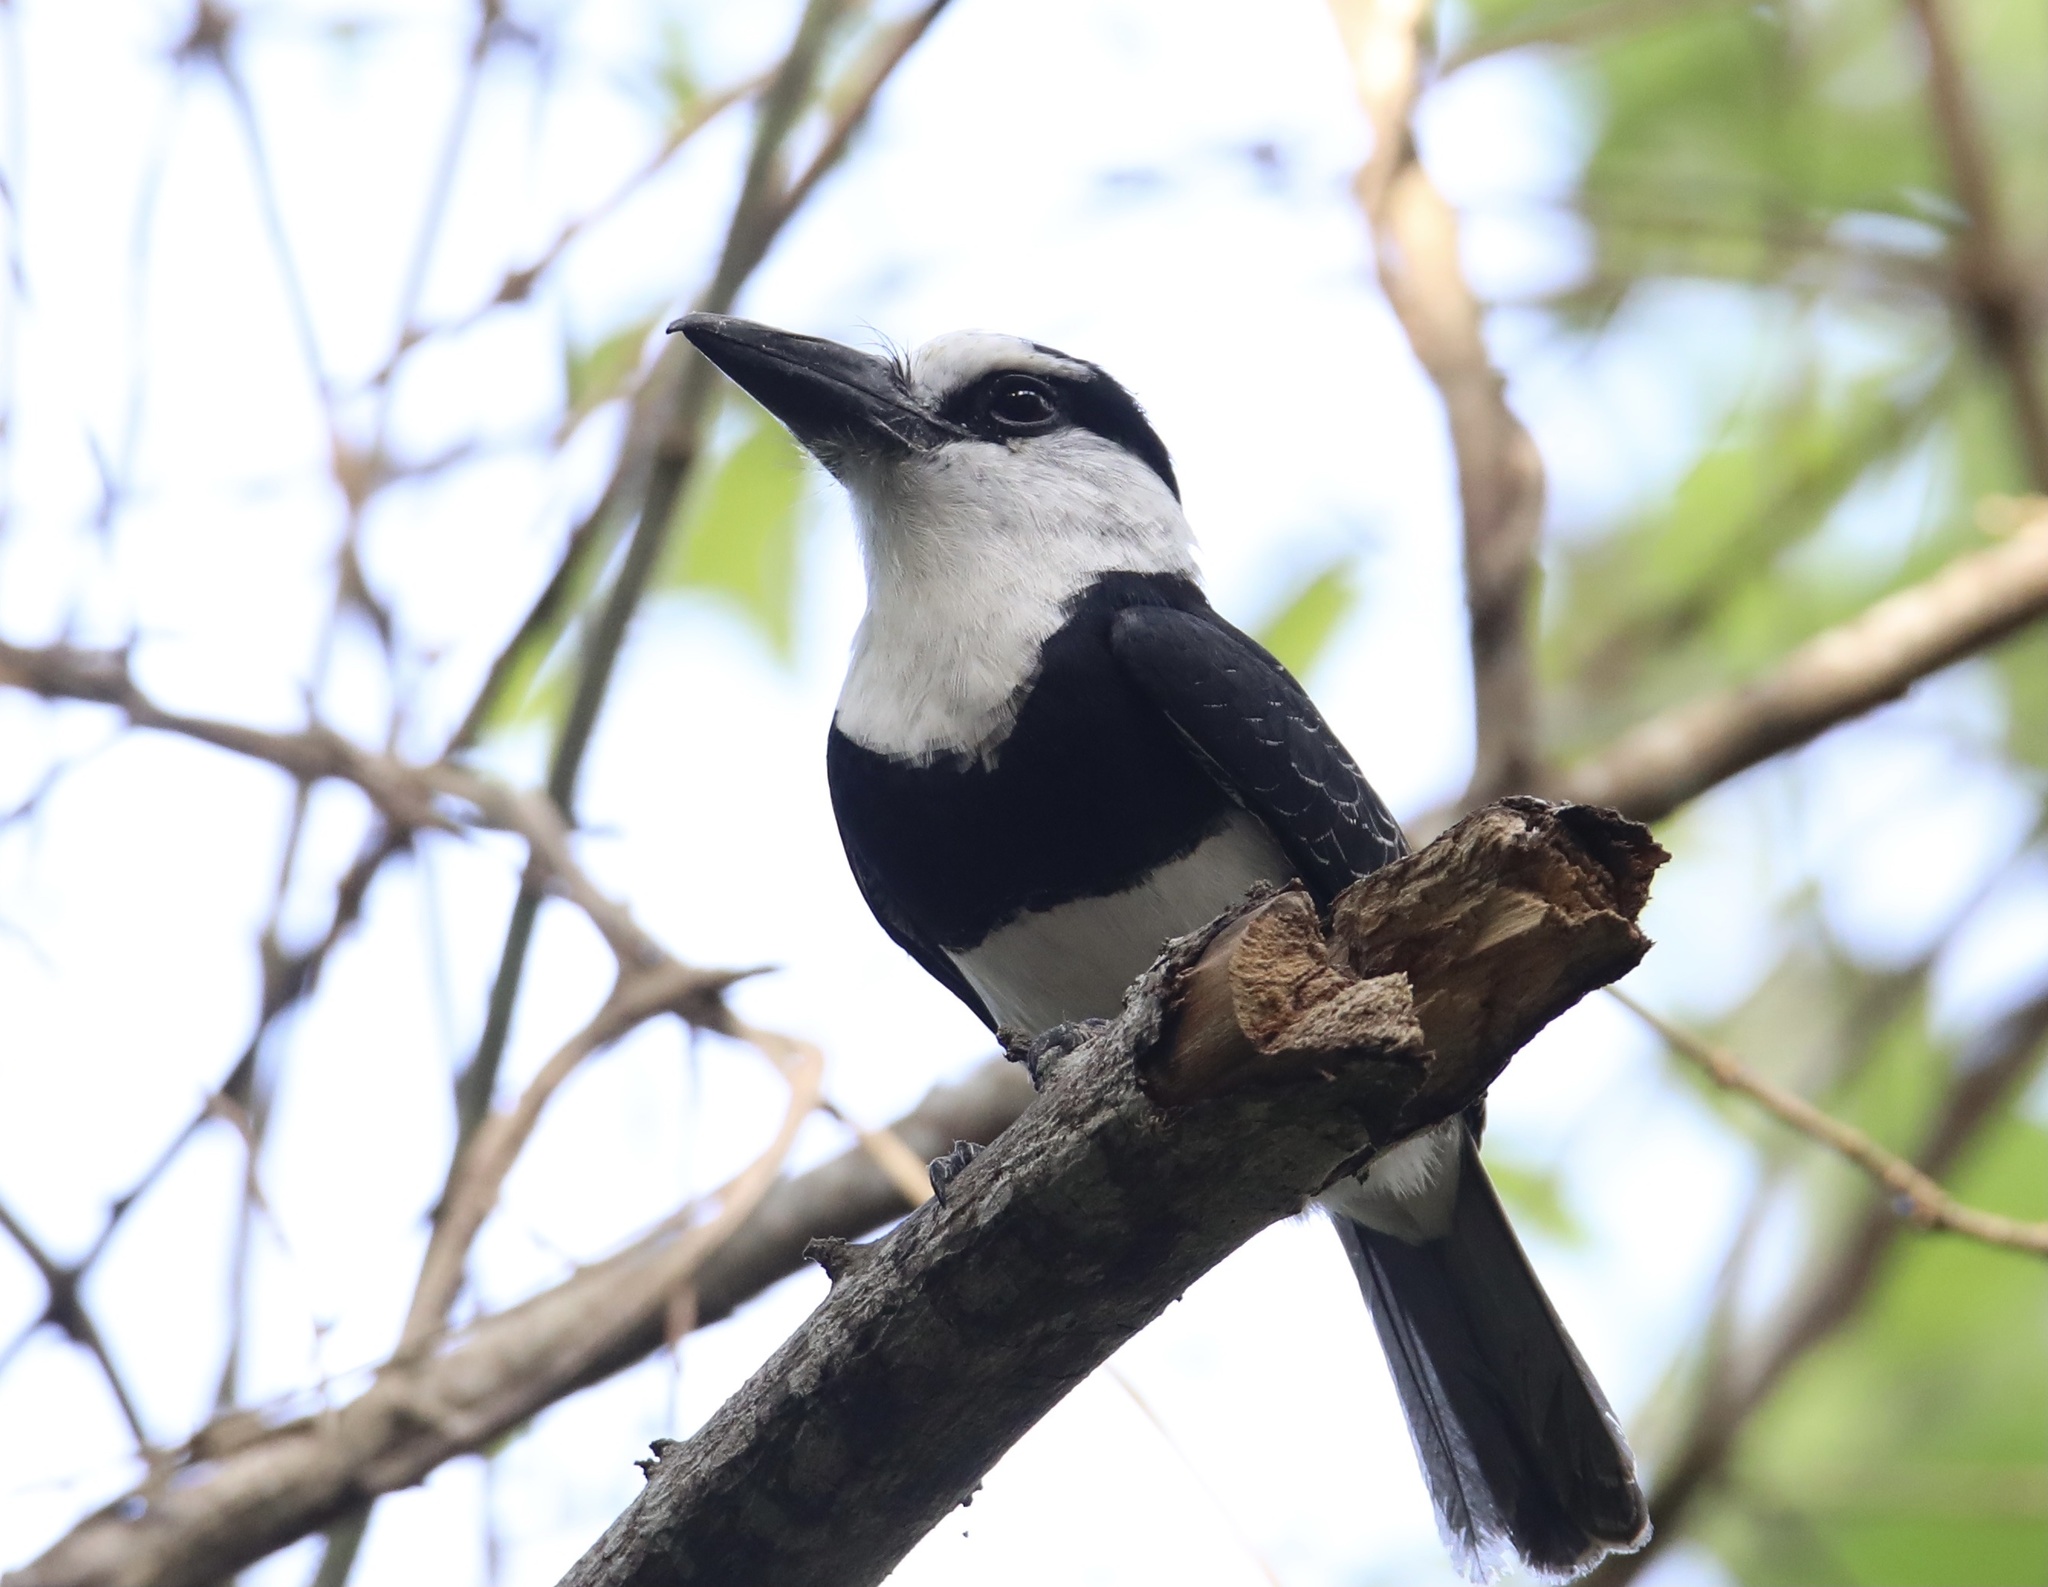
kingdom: Animalia
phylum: Chordata
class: Aves
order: Piciformes
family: Bucconidae
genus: Notharchus
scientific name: Notharchus hyperrhynchus
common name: White-necked puffbird
